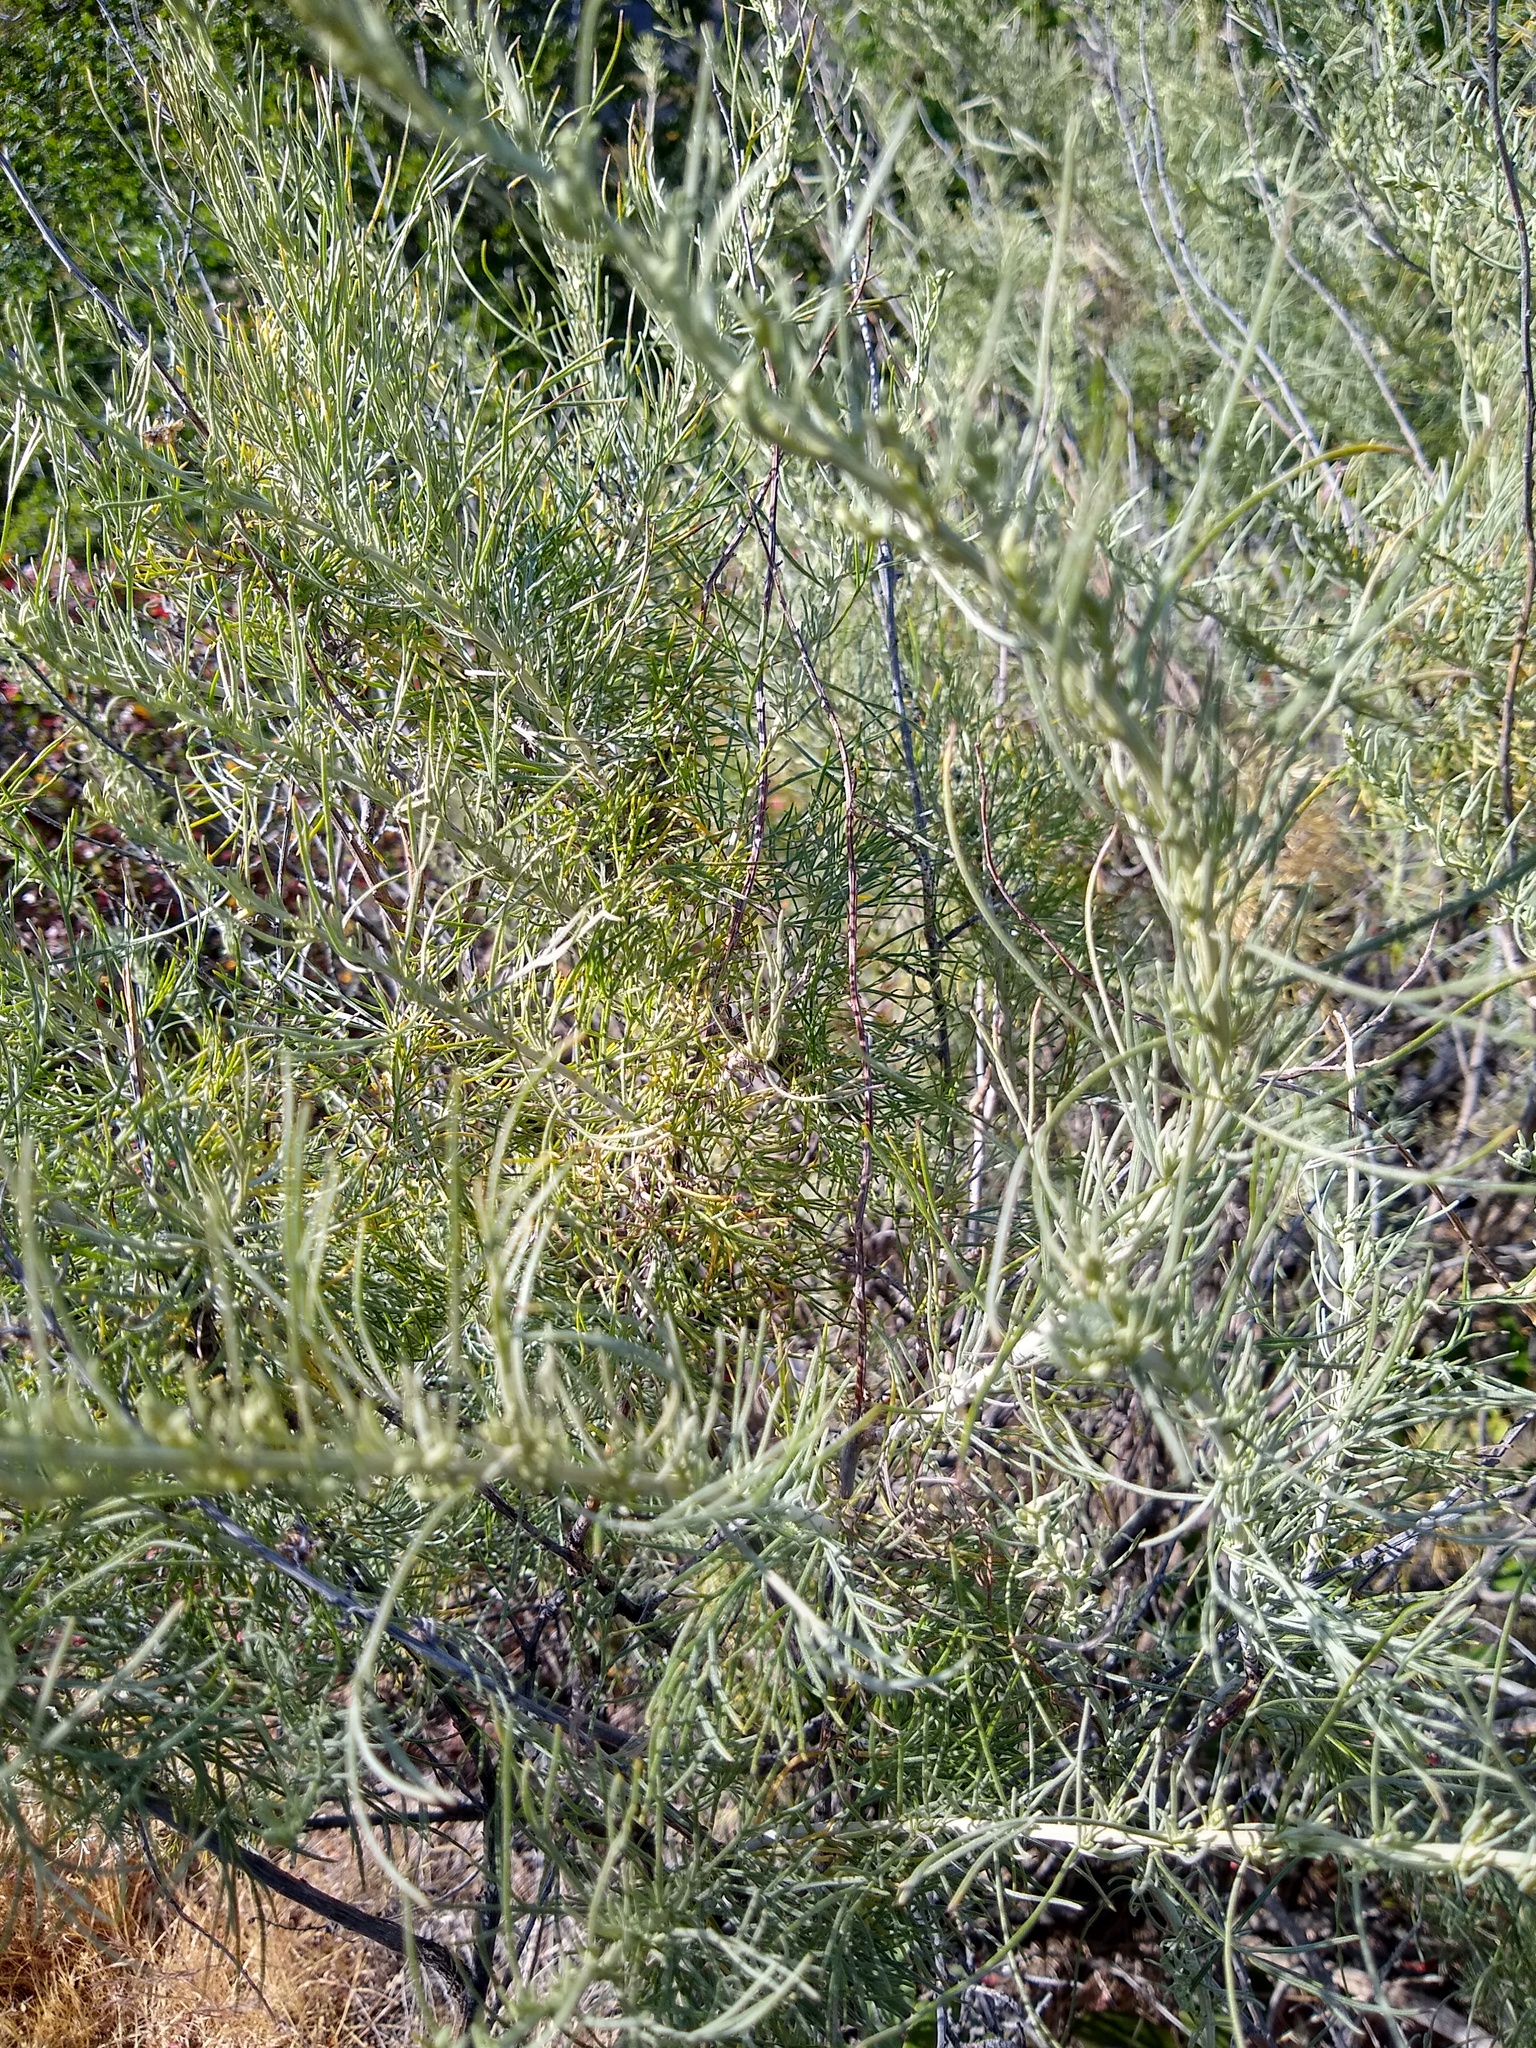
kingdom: Plantae
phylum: Tracheophyta
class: Magnoliopsida
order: Asterales
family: Asteraceae
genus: Artemisia
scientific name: Artemisia californica
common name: California sagebrush
